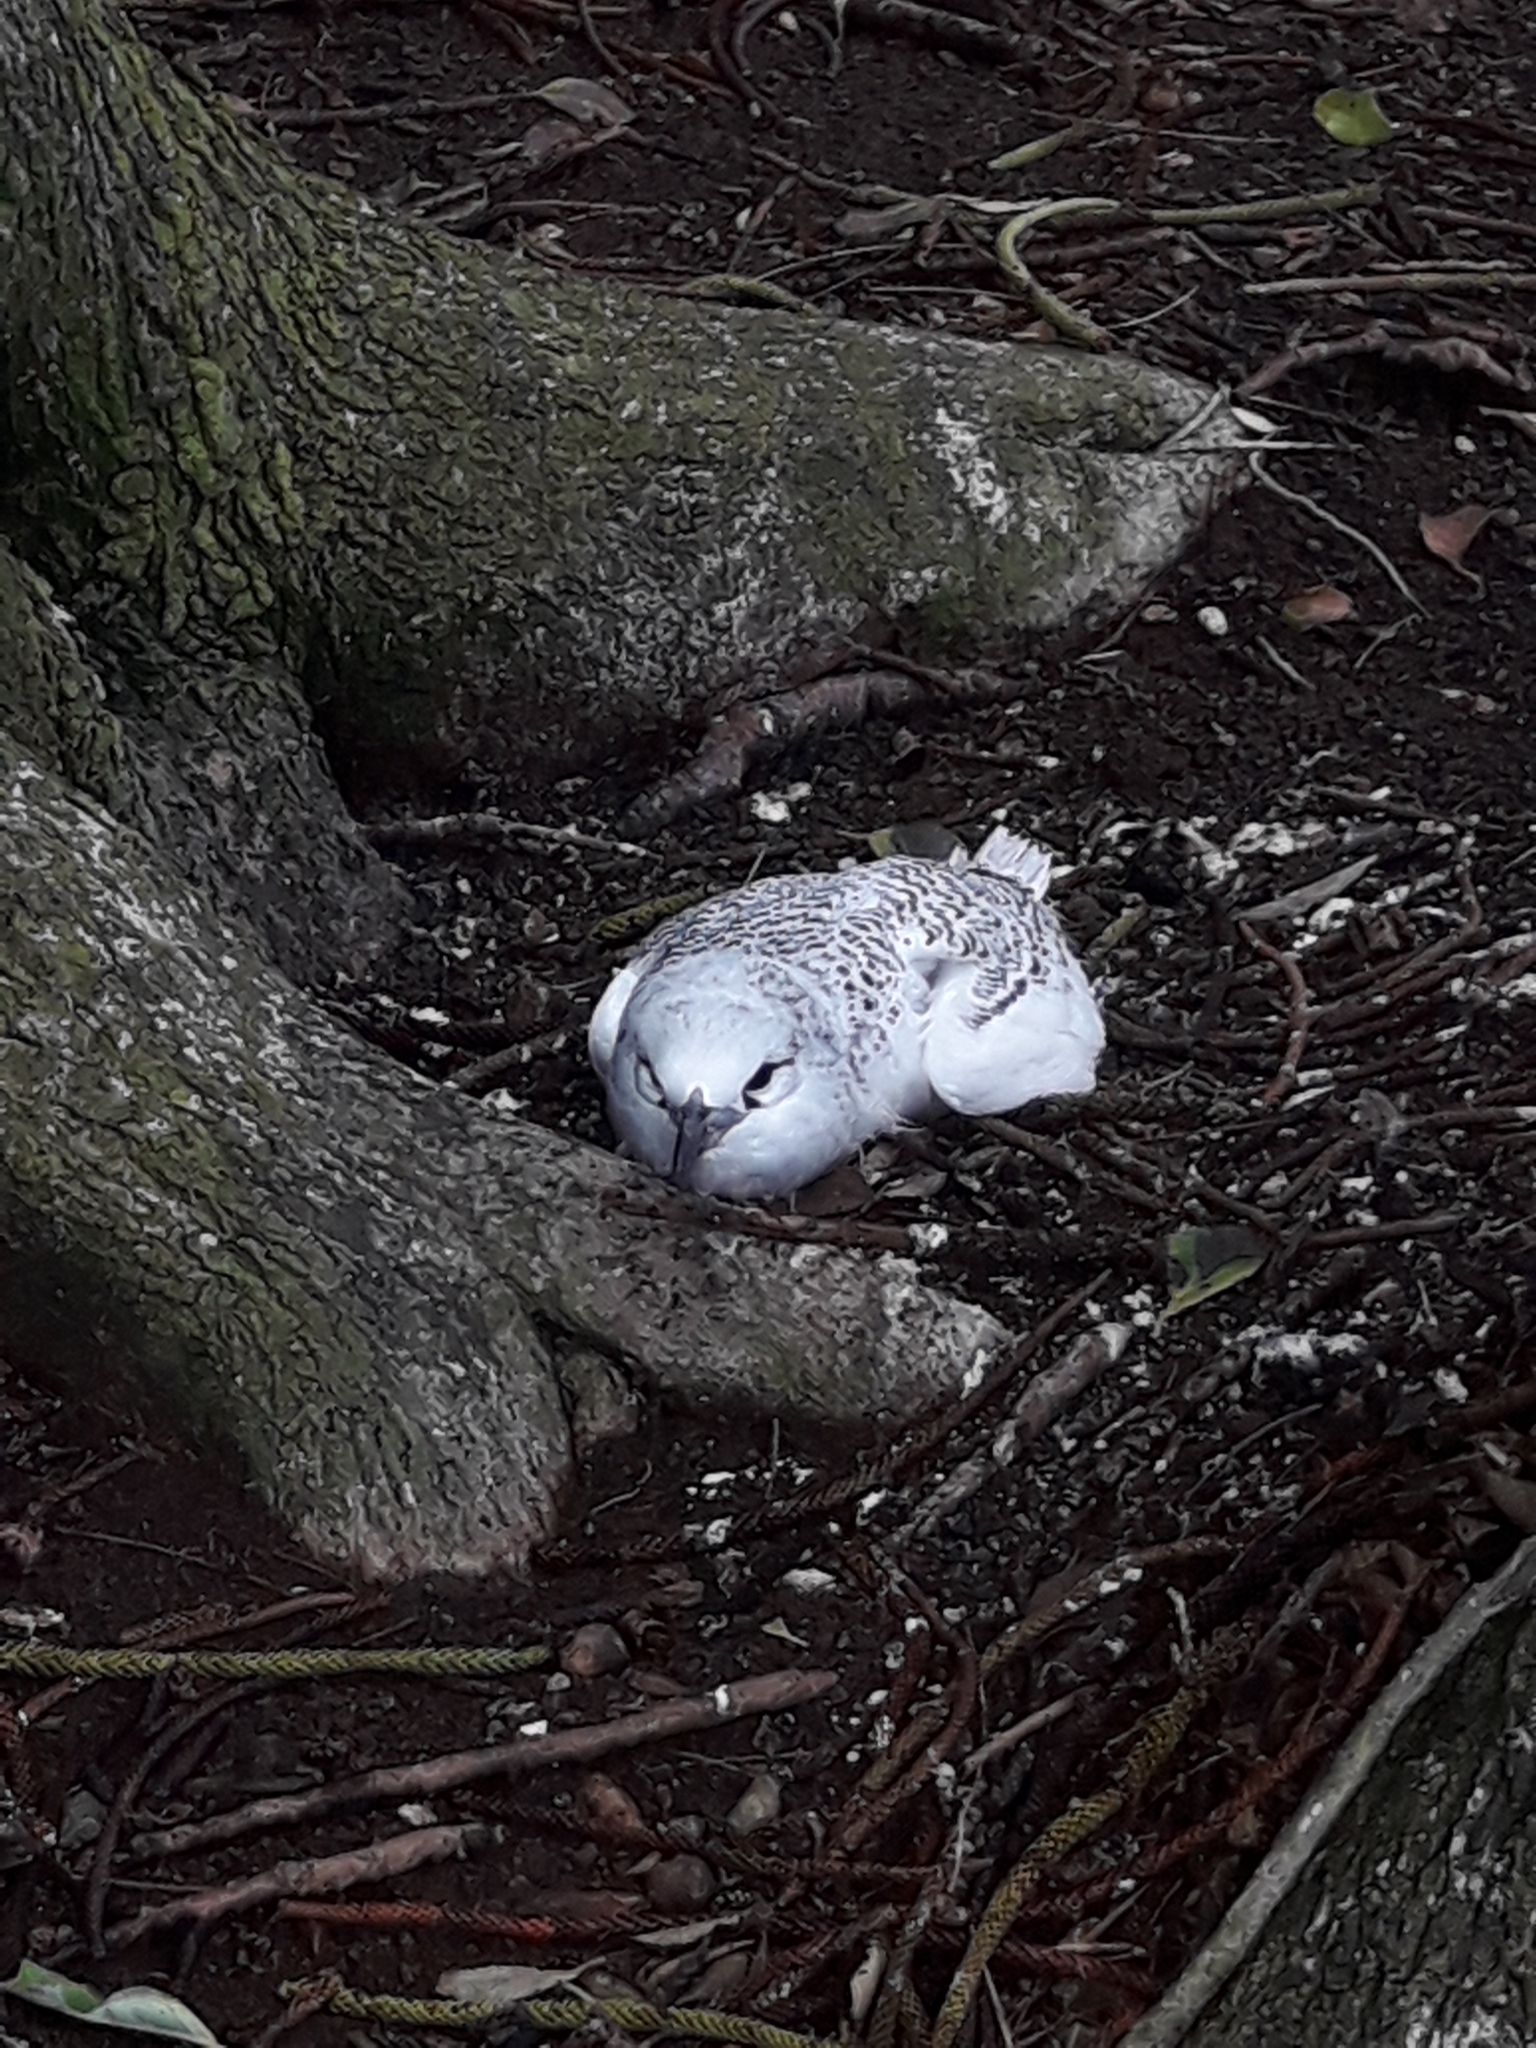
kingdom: Animalia
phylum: Chordata
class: Aves
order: Phaethontiformes
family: Phaethontidae
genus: Phaethon
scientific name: Phaethon rubricauda
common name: Red-tailed tropicbird
